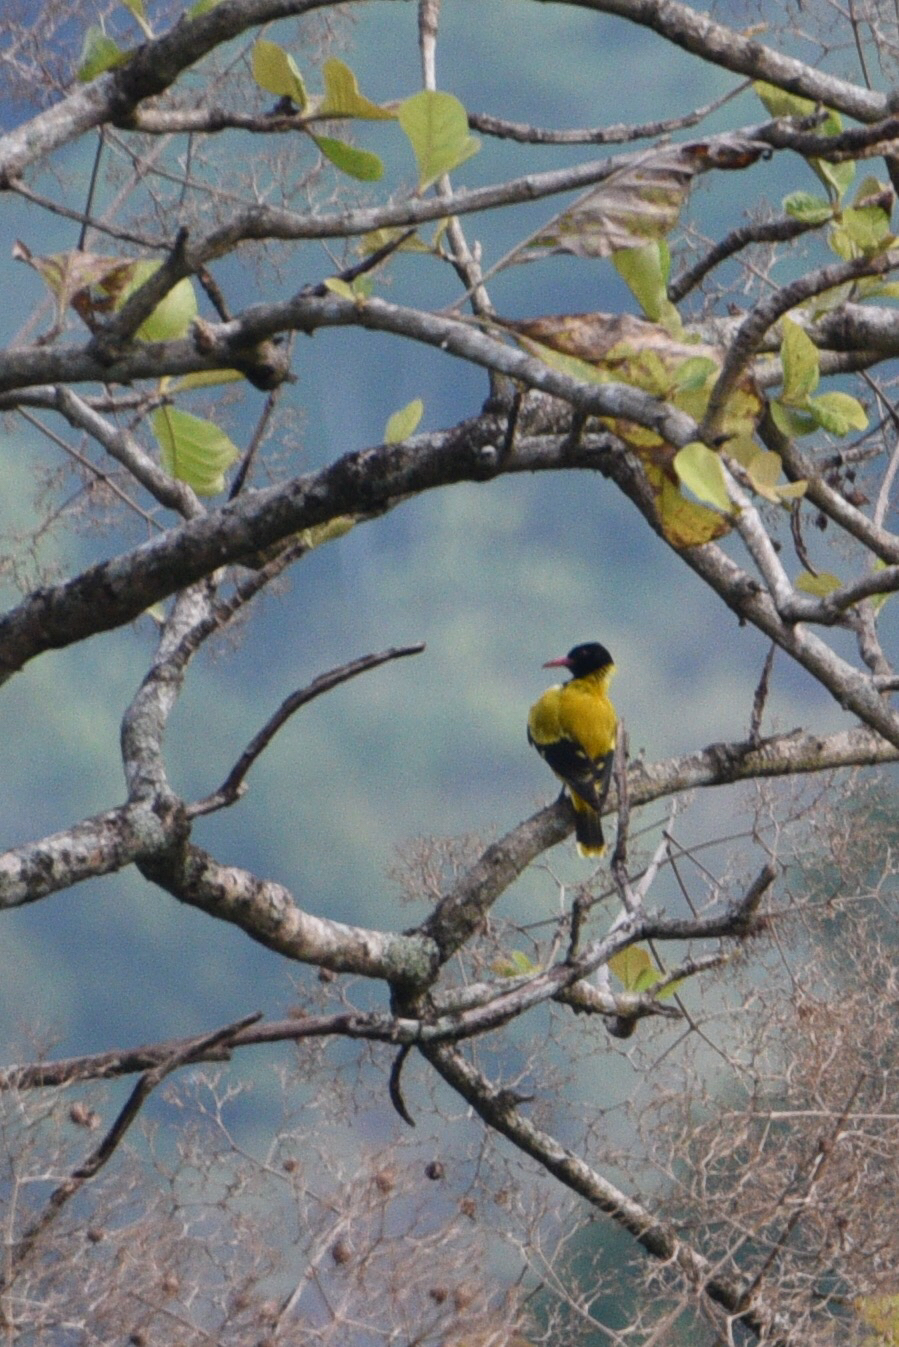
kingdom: Animalia
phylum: Chordata
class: Aves
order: Passeriformes
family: Oriolidae
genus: Oriolus
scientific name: Oriolus xanthornus
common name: Black-hooded oriole
